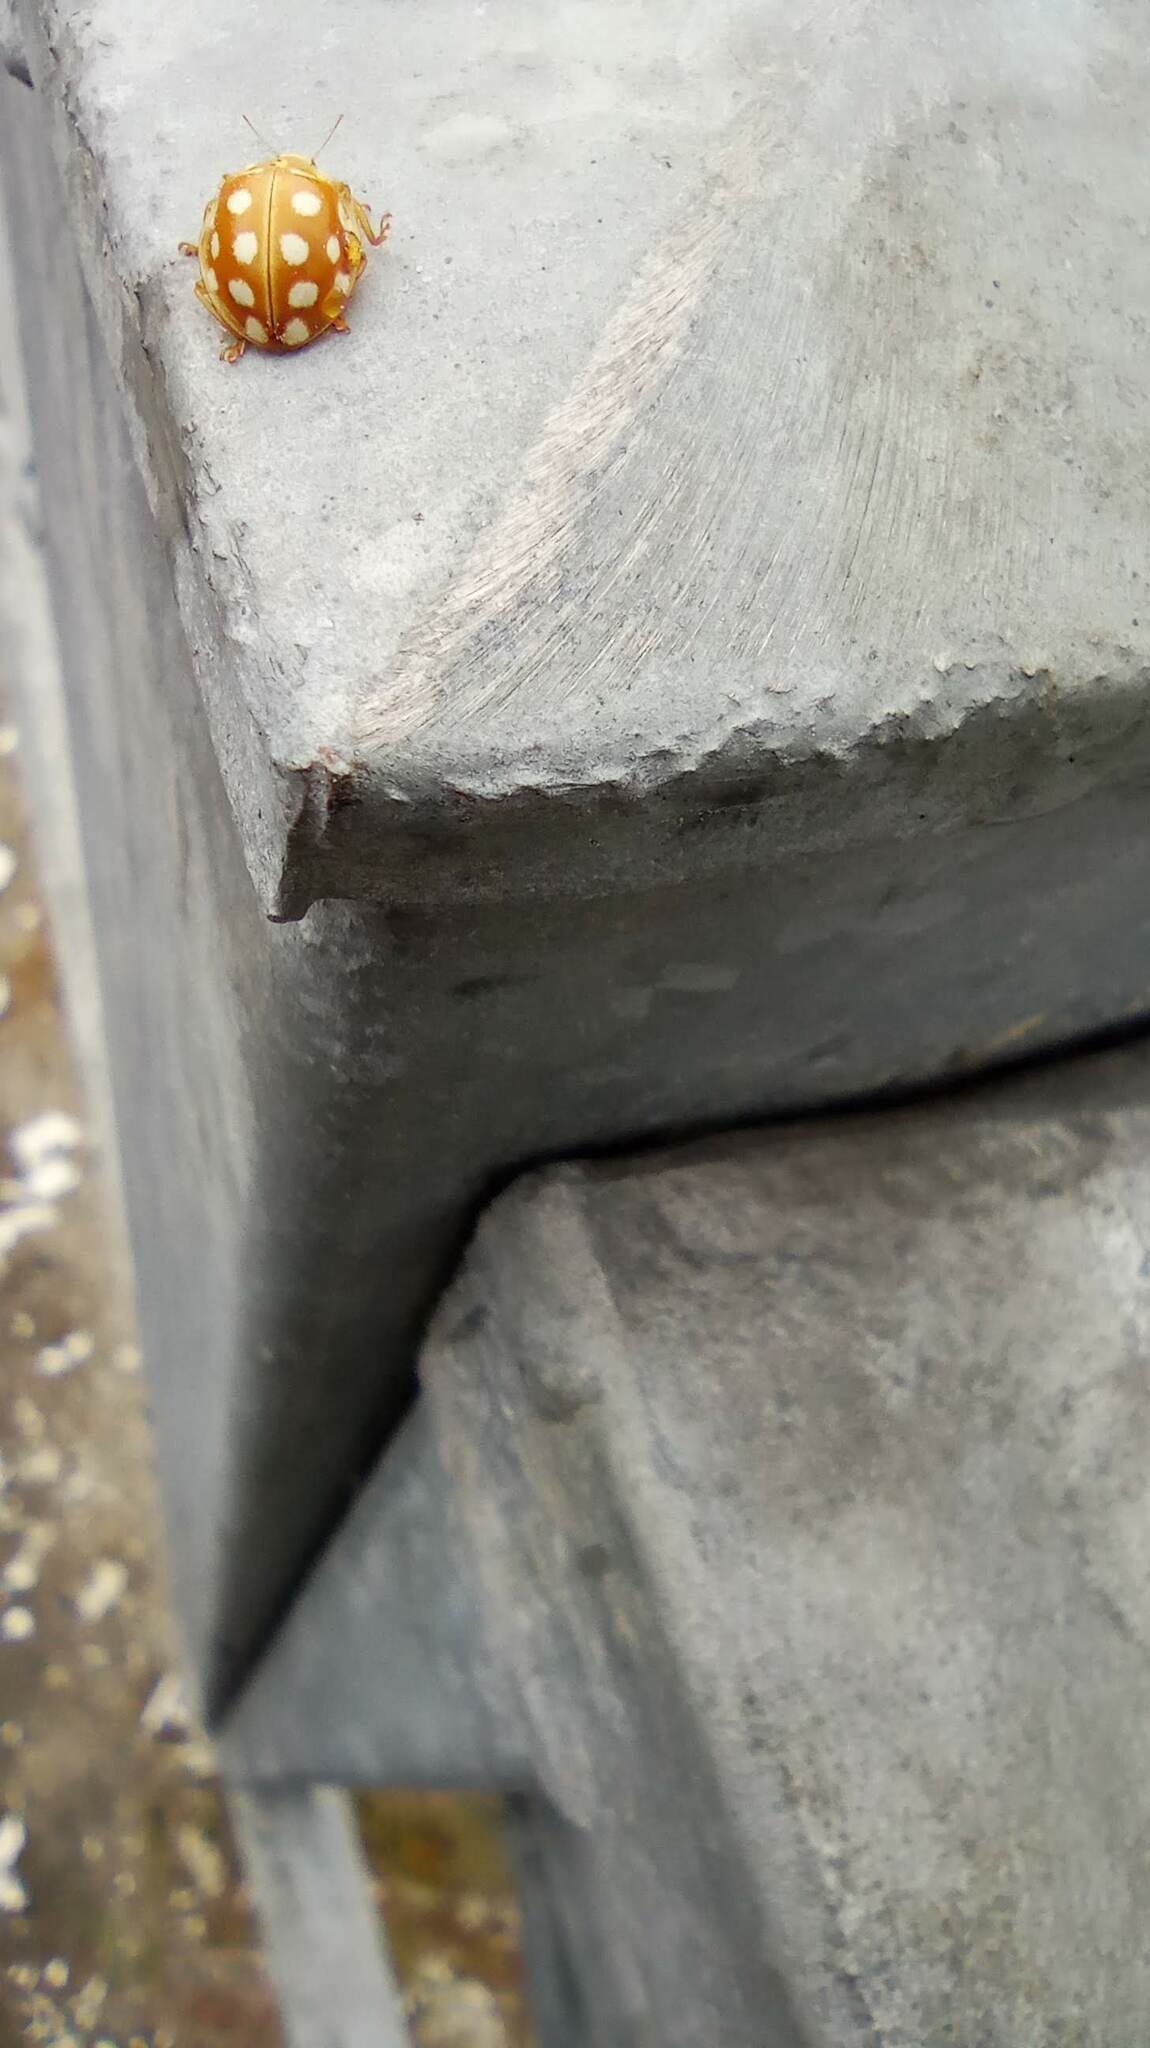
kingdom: Animalia
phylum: Arthropoda
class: Insecta
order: Coleoptera
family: Coccinellidae
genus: Halyzia
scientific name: Halyzia sedecimguttata
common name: Orange ladybird
